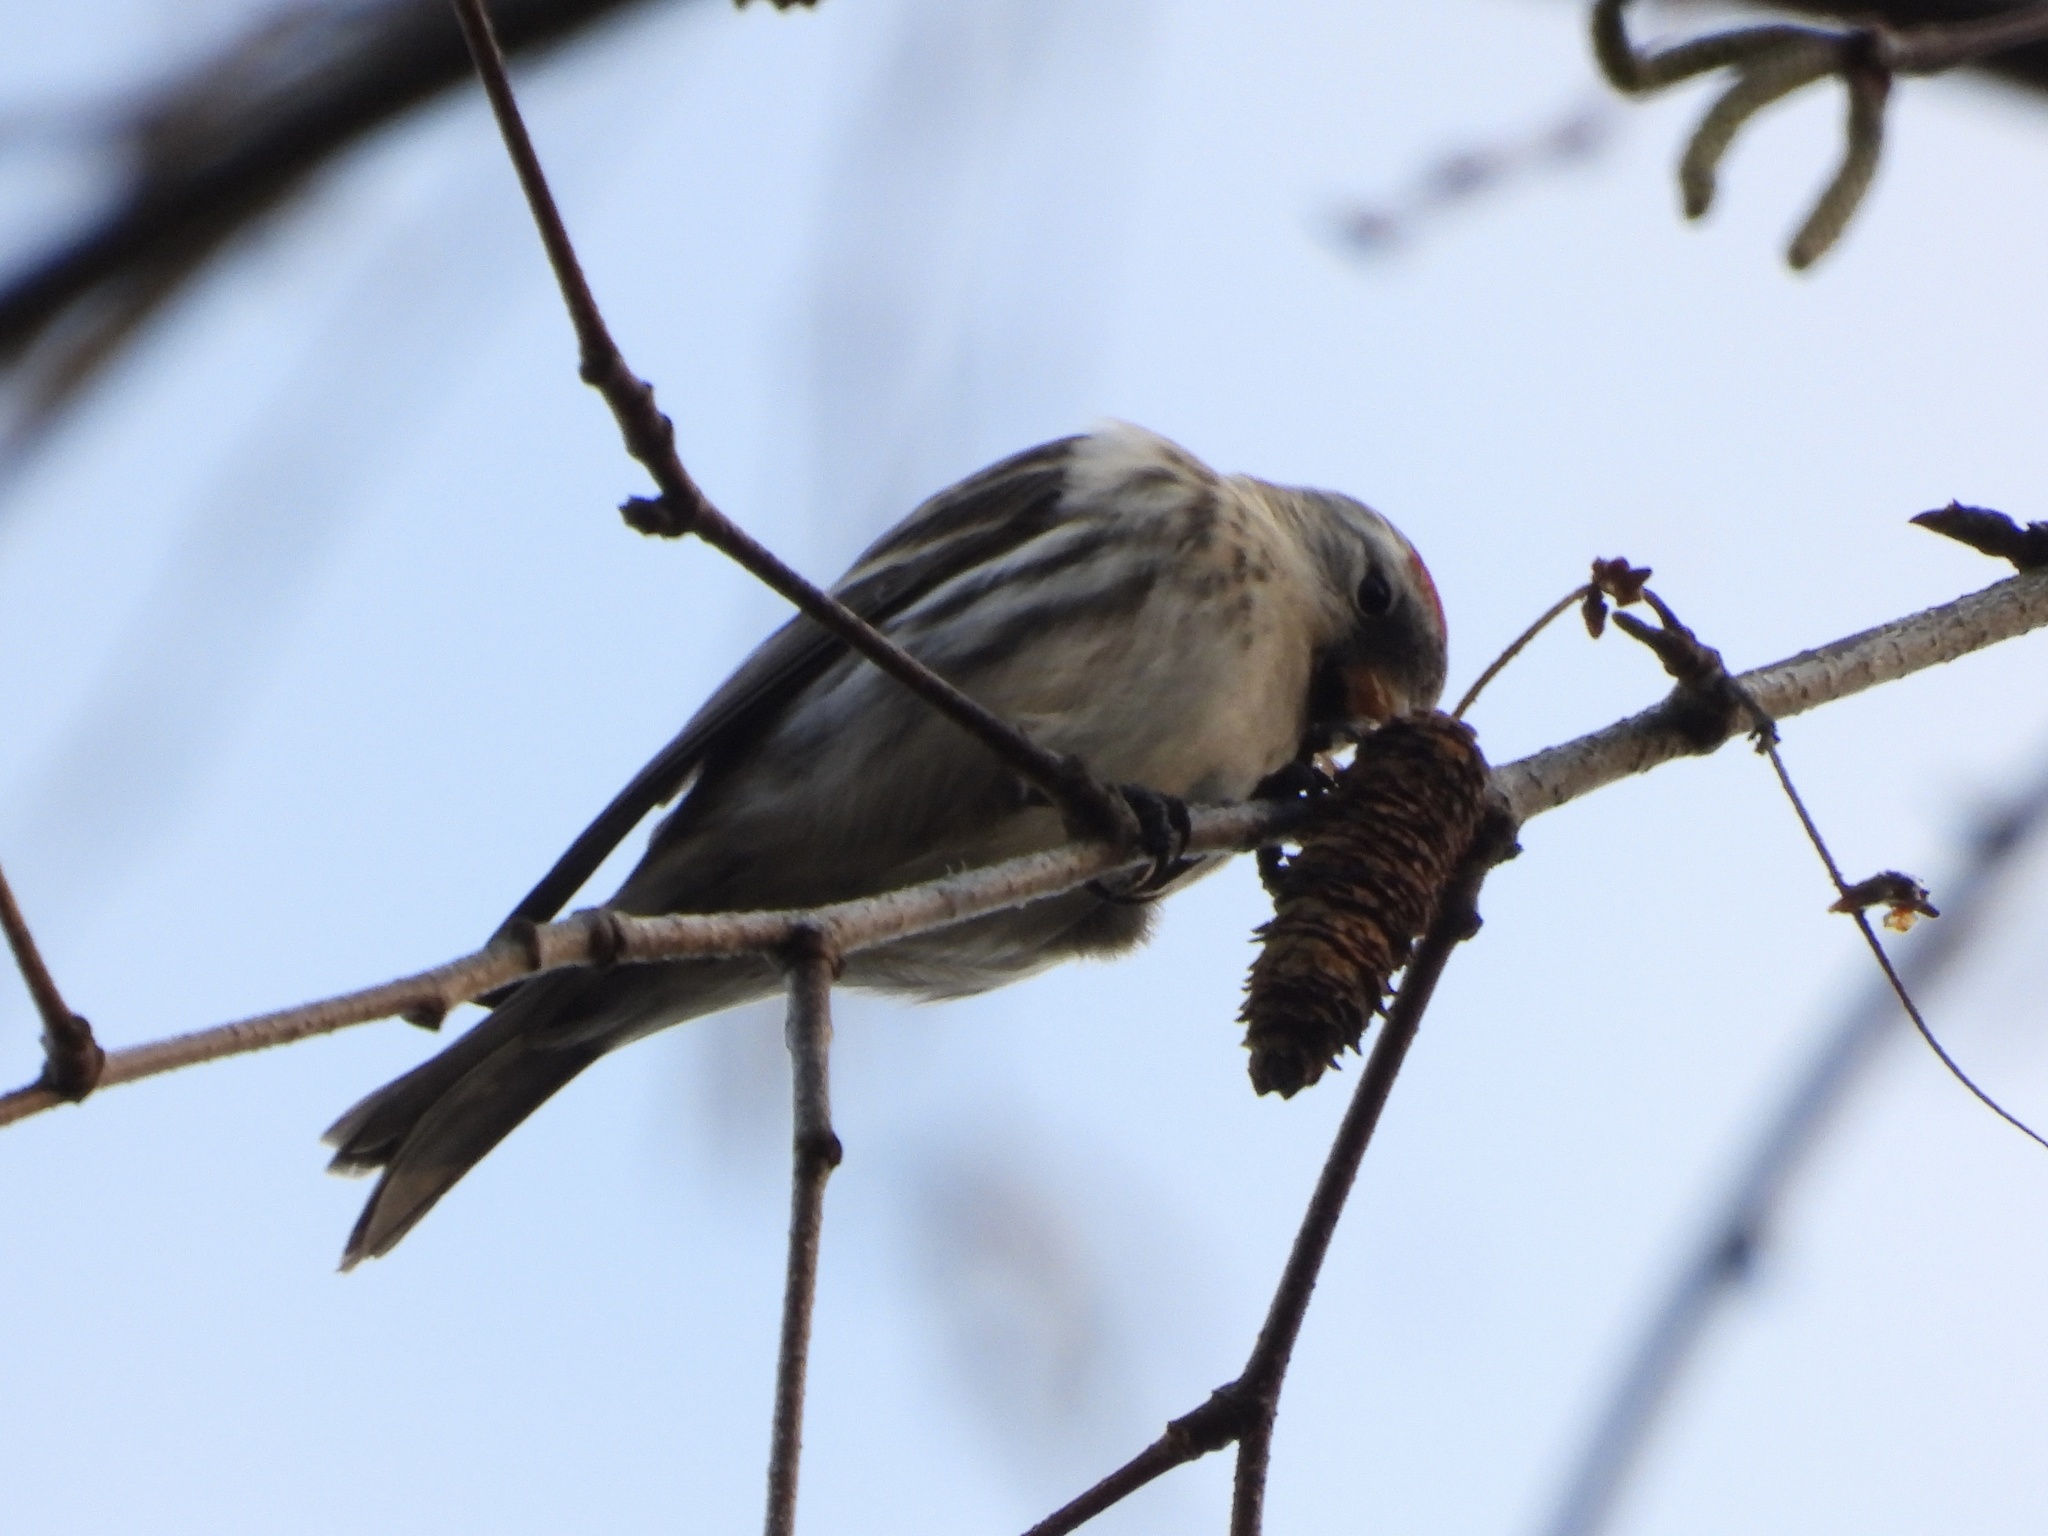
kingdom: Animalia
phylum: Chordata
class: Aves
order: Passeriformes
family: Fringillidae
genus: Acanthis
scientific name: Acanthis flammea
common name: Common redpoll
